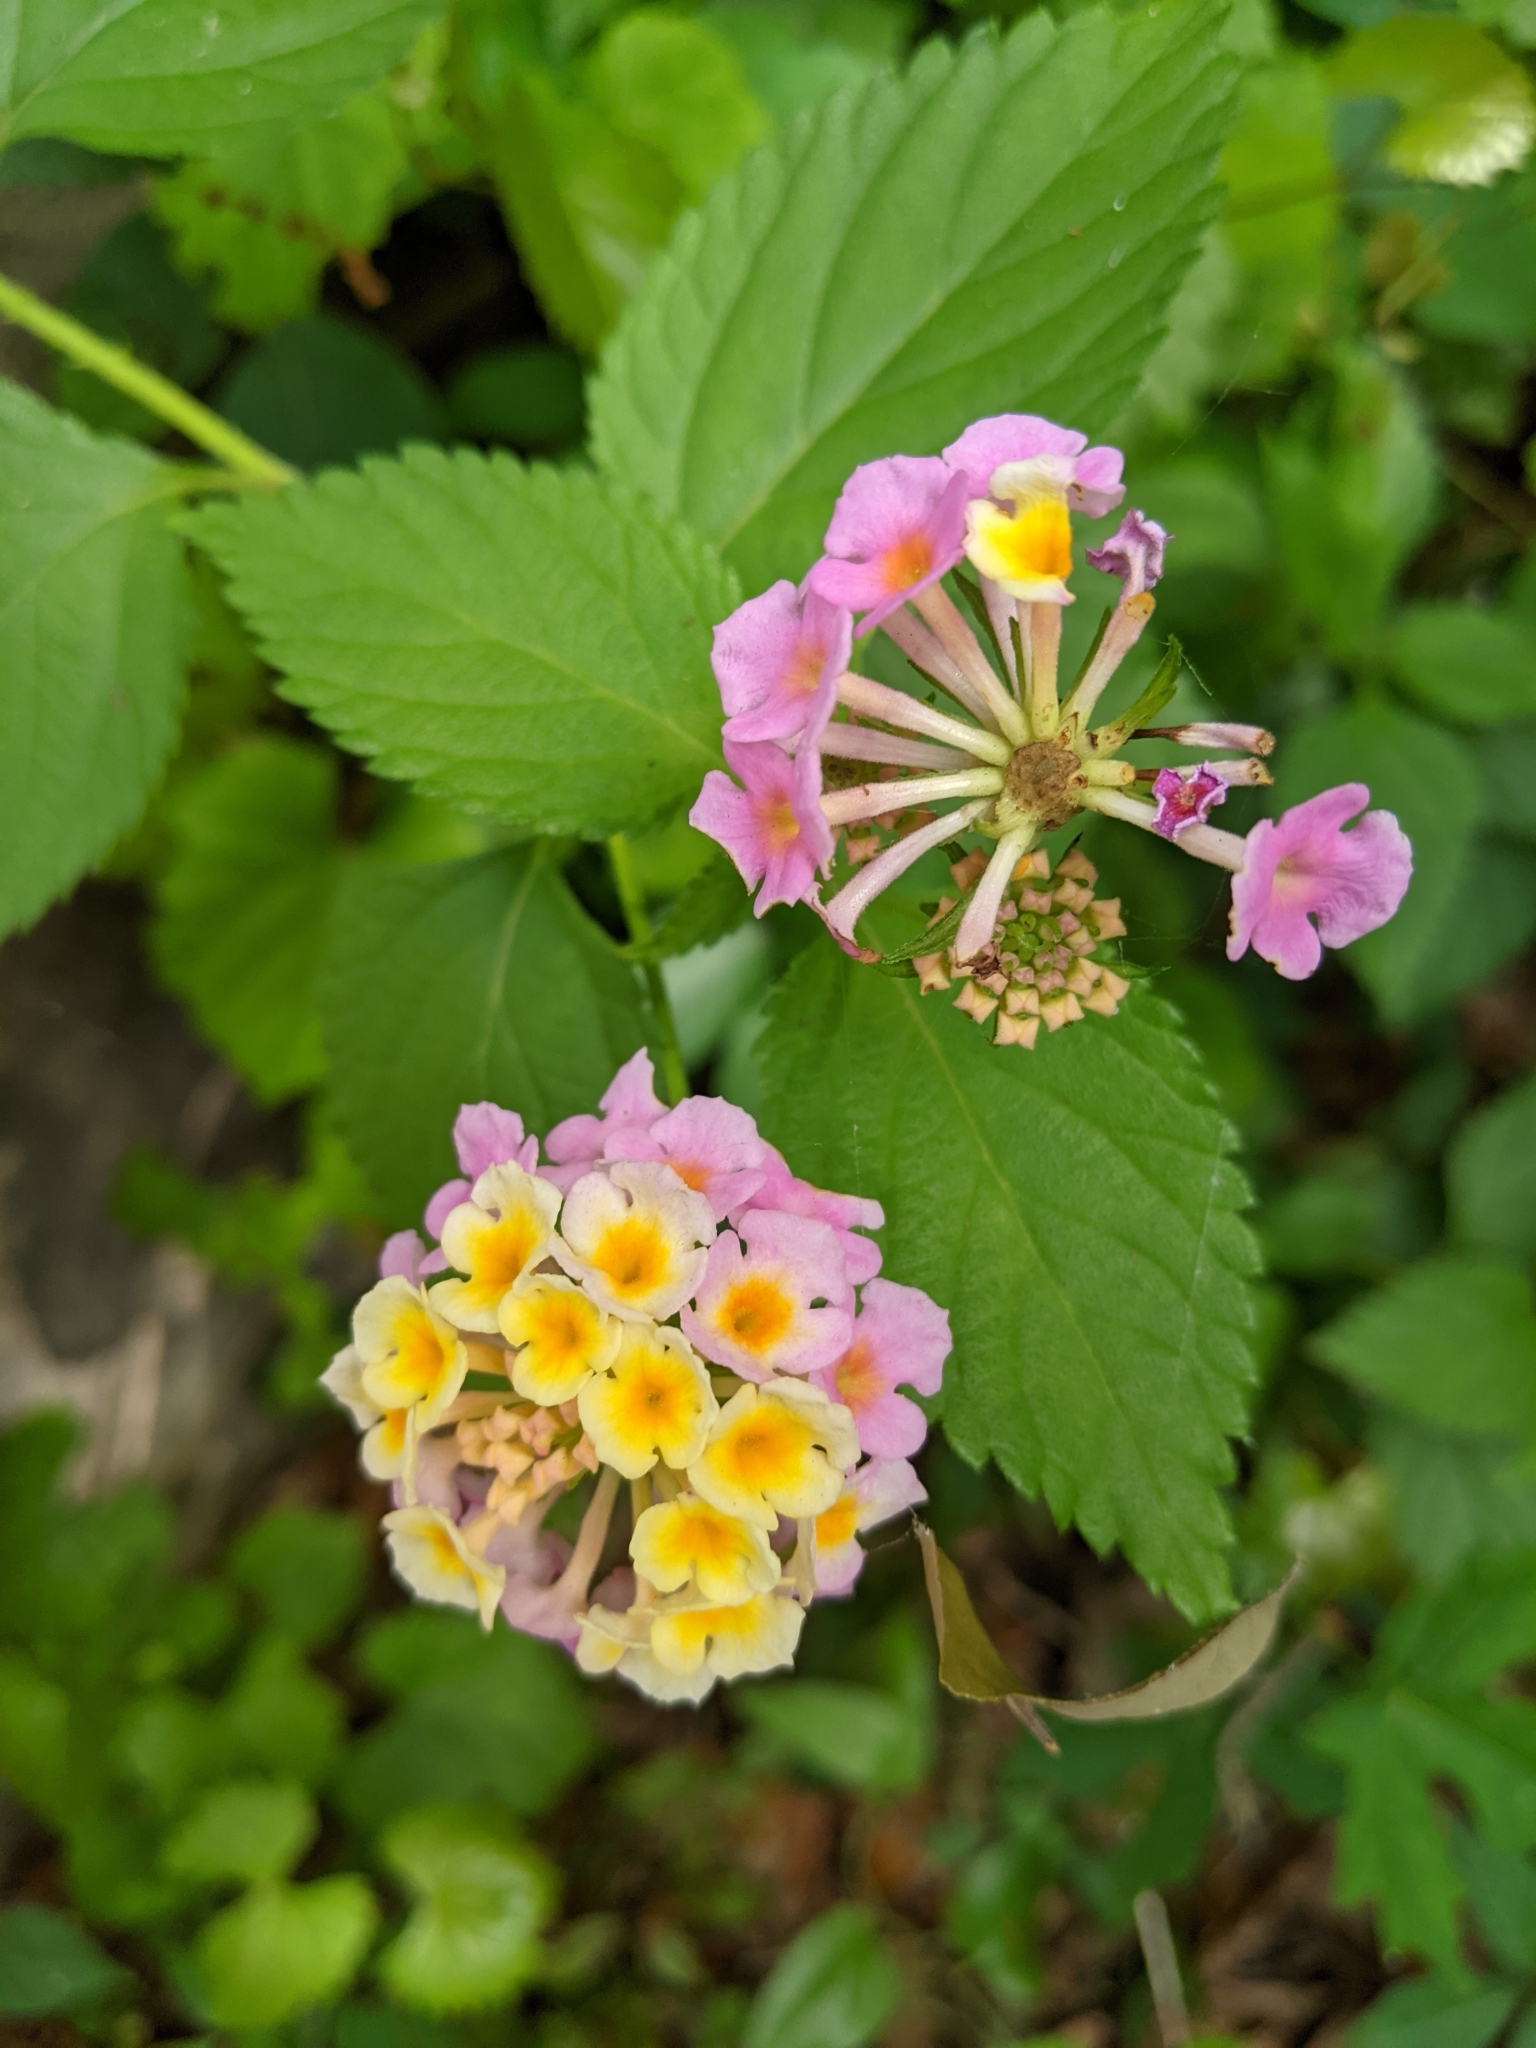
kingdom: Plantae
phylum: Tracheophyta
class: Magnoliopsida
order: Lamiales
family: Verbenaceae
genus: Lantana
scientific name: Lantana camara
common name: Lantana
